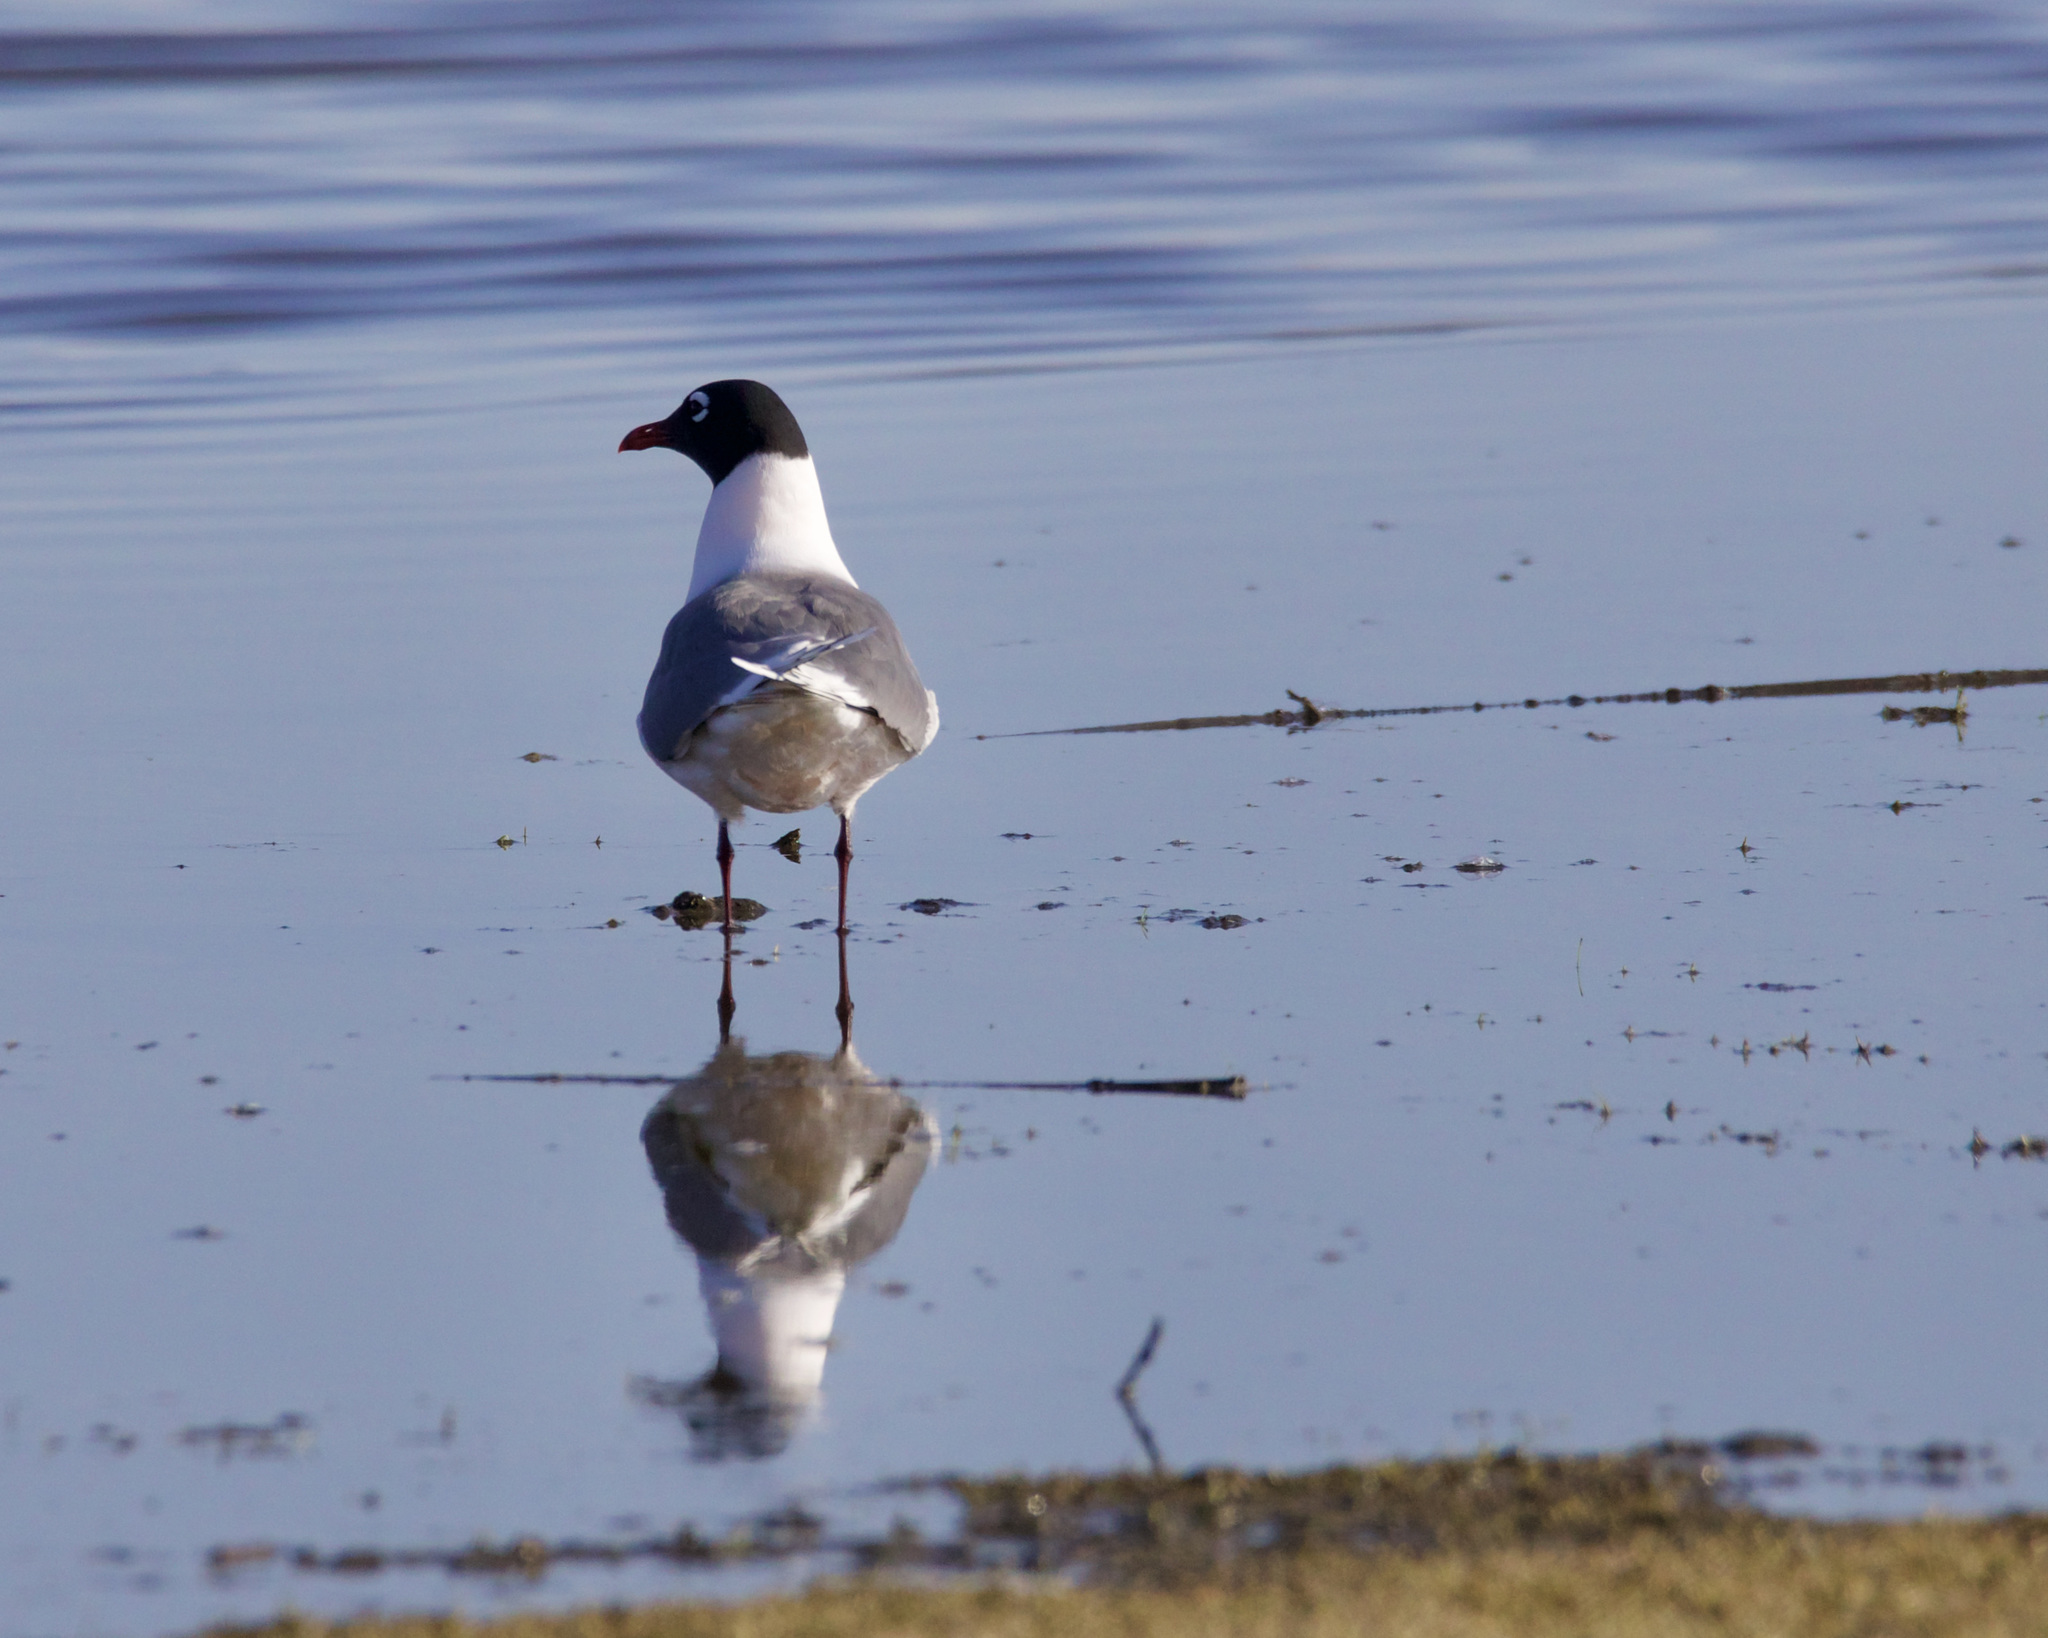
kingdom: Animalia
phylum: Chordata
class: Aves
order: Charadriiformes
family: Laridae
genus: Leucophaeus
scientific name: Leucophaeus pipixcan
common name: Franklin's gull
